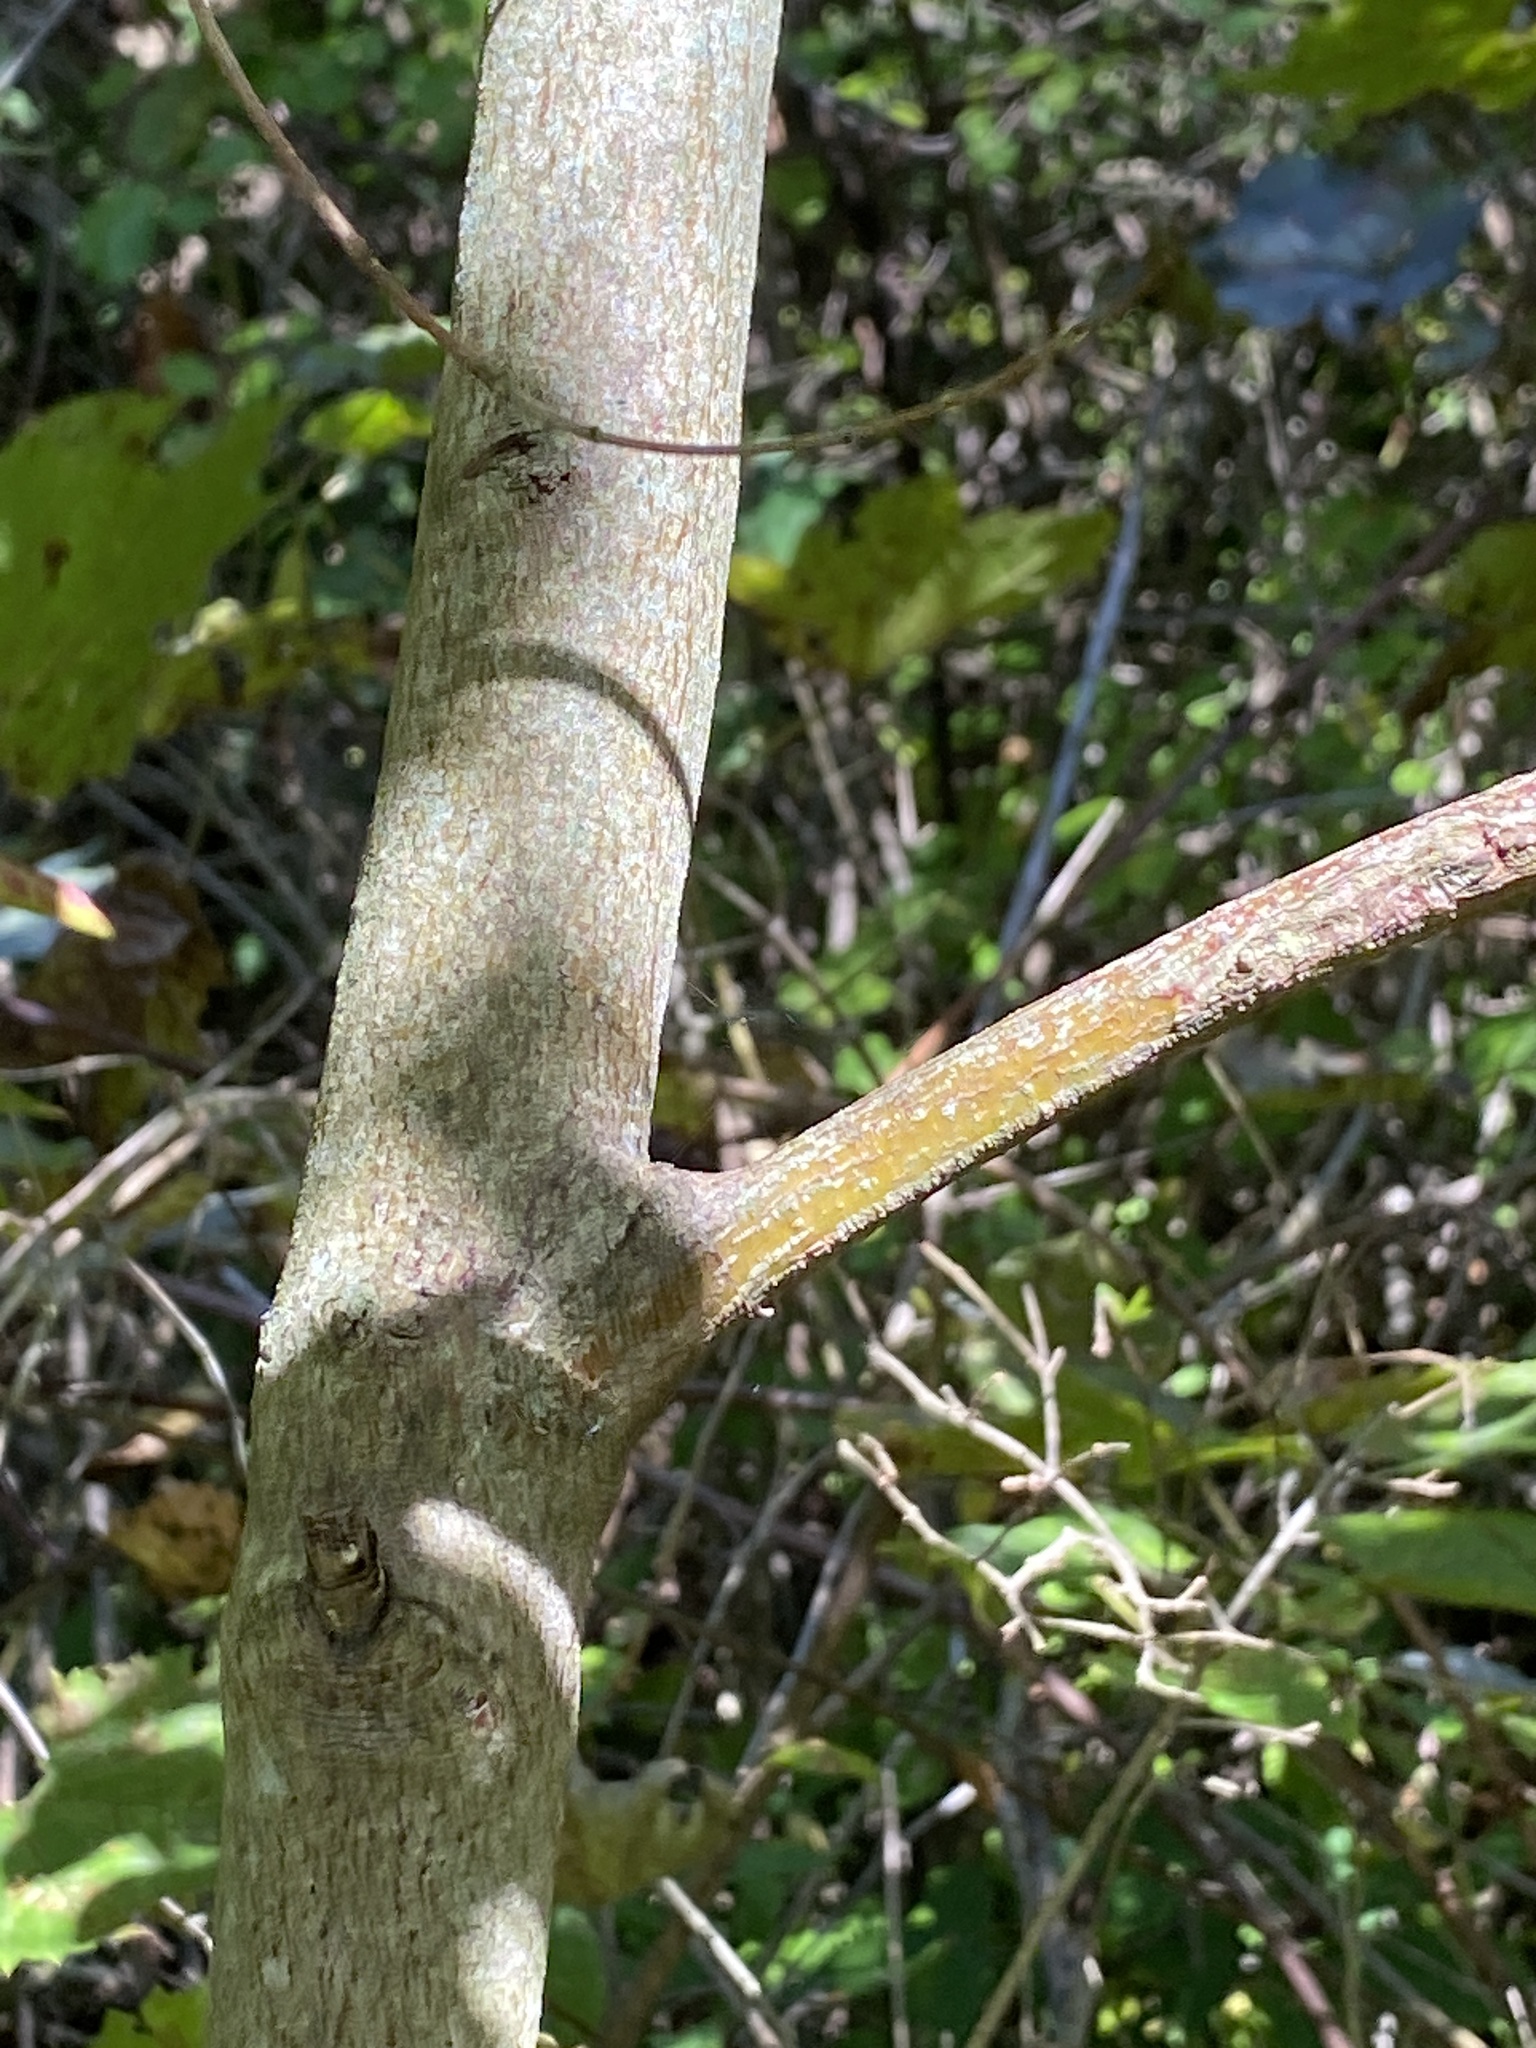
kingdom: Plantae
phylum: Tracheophyta
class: Magnoliopsida
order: Cornales
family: Cornaceae
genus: Cornus
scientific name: Cornus amomum
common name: Silky dogwood
